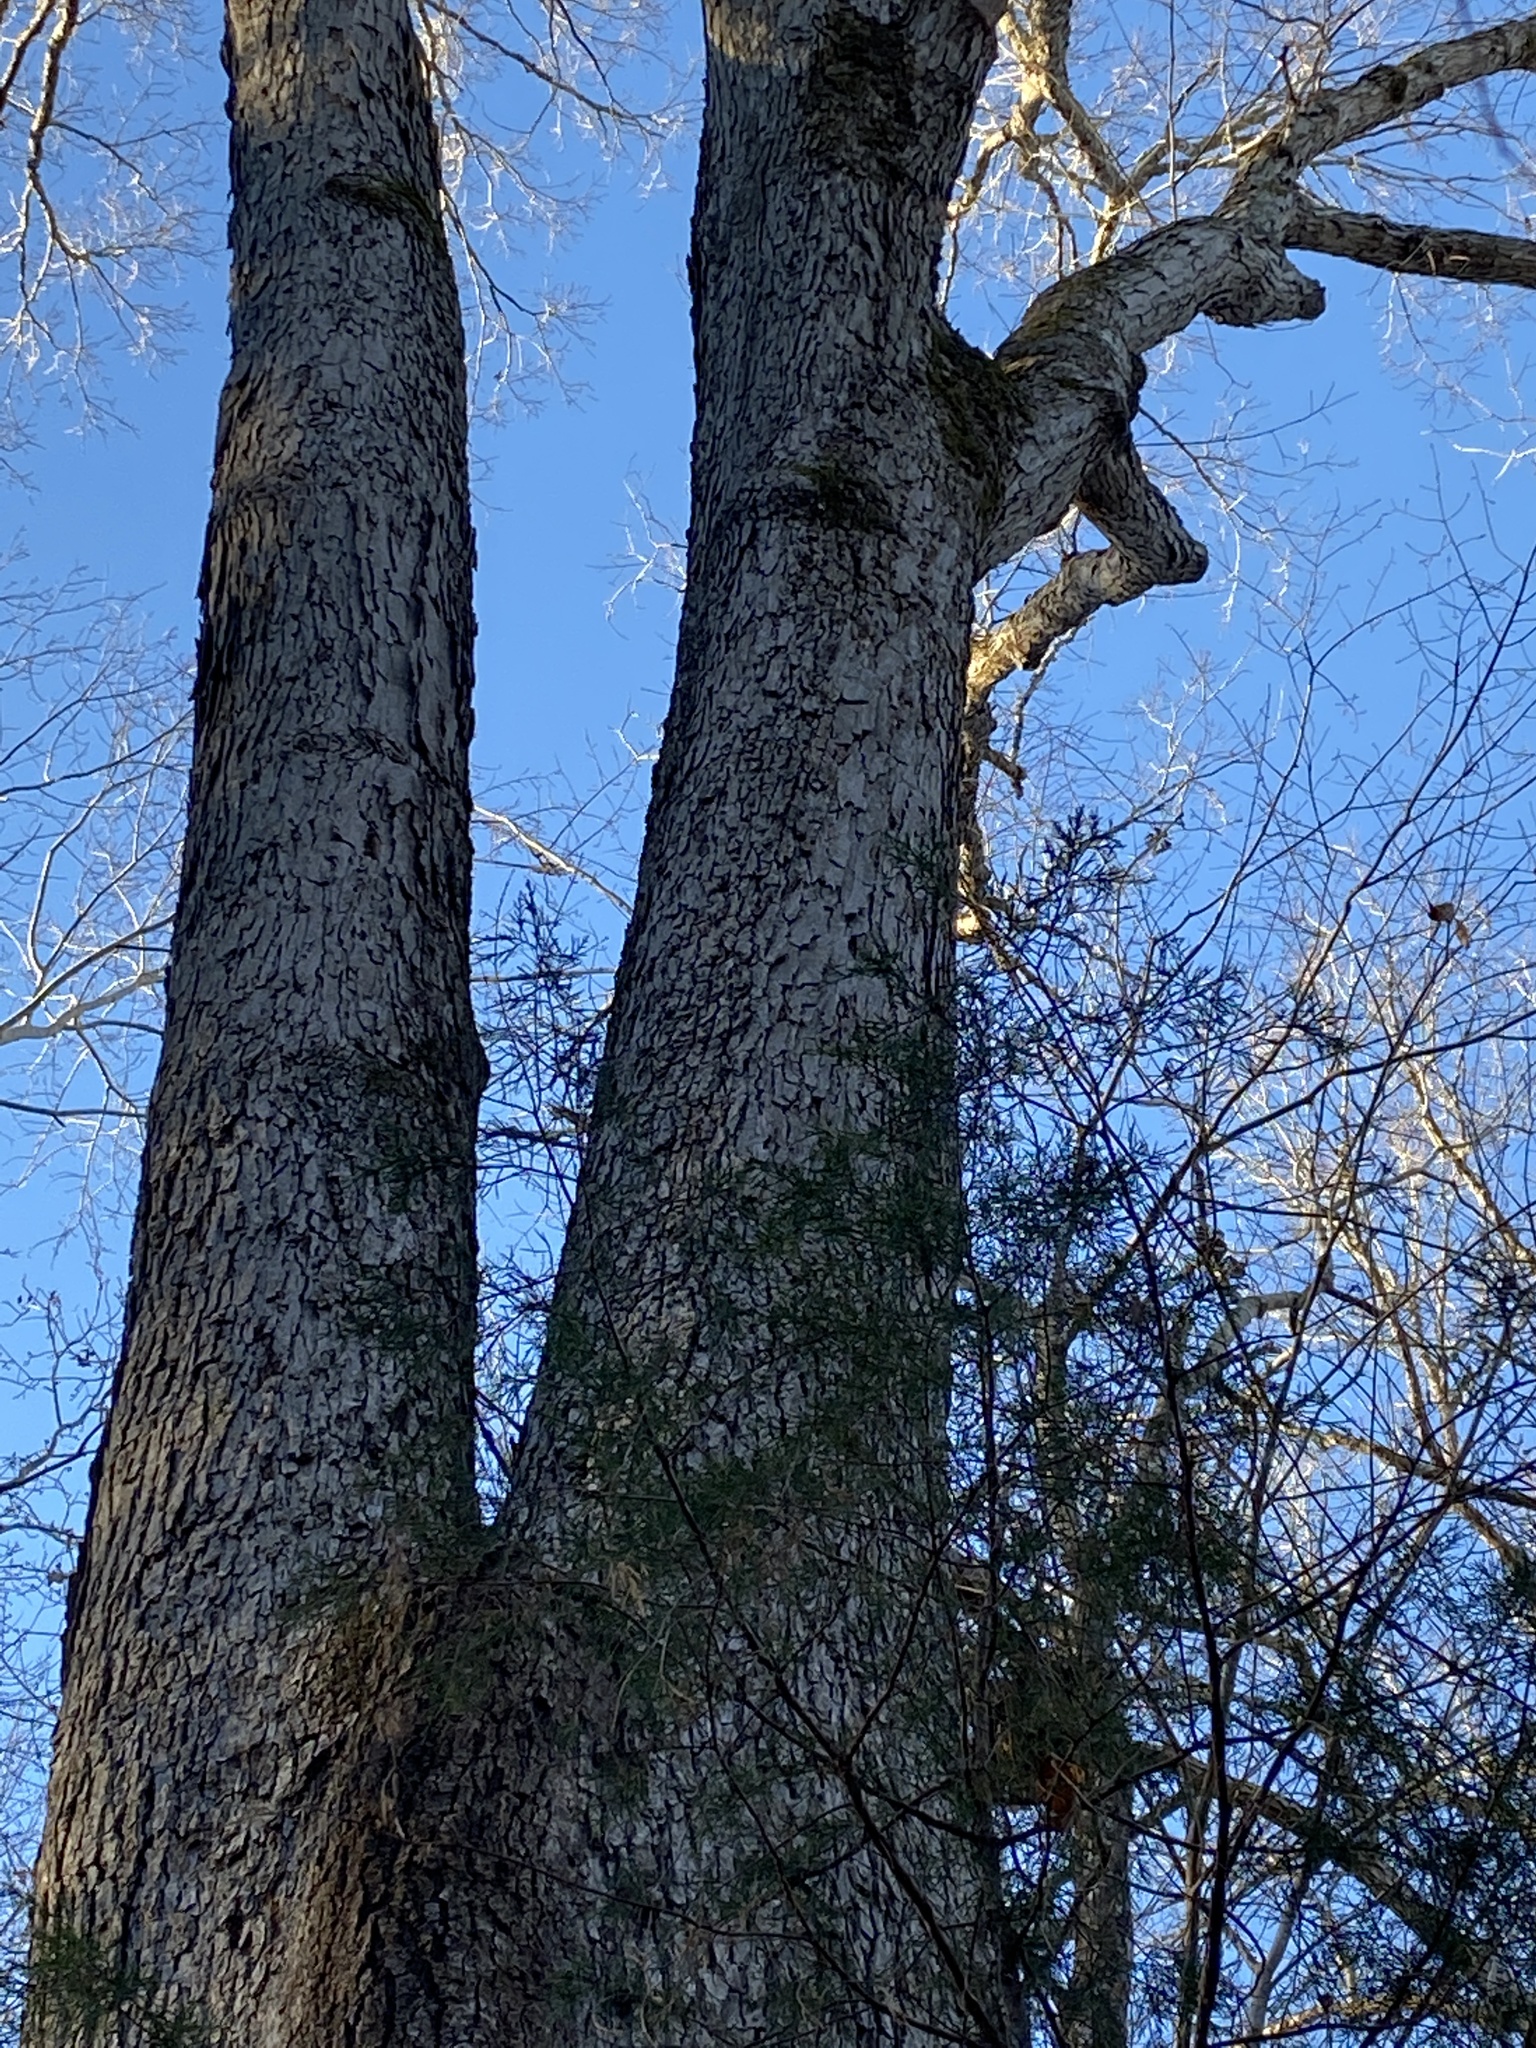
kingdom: Plantae
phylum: Tracheophyta
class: Magnoliopsida
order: Fagales
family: Fagaceae
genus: Quercus
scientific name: Quercus alba
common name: White oak
